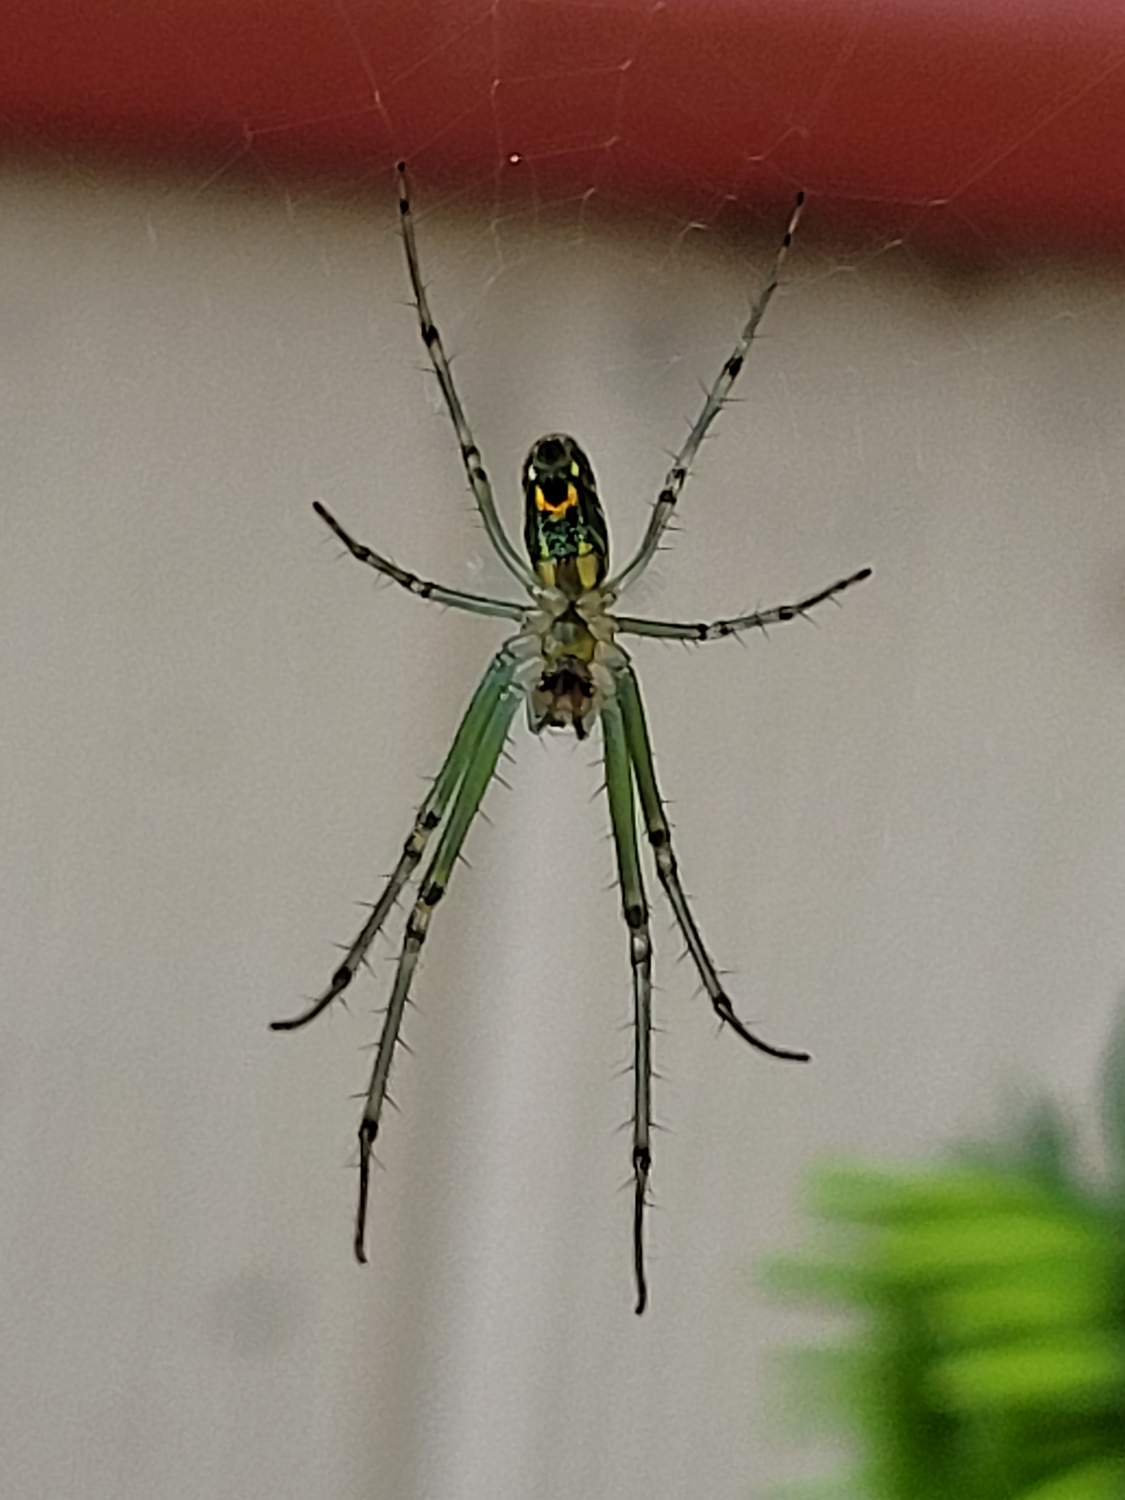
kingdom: Animalia
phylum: Arthropoda
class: Arachnida
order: Araneae
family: Tetragnathidae
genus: Leucauge
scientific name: Leucauge venusta
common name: Longjawed orb weavers
